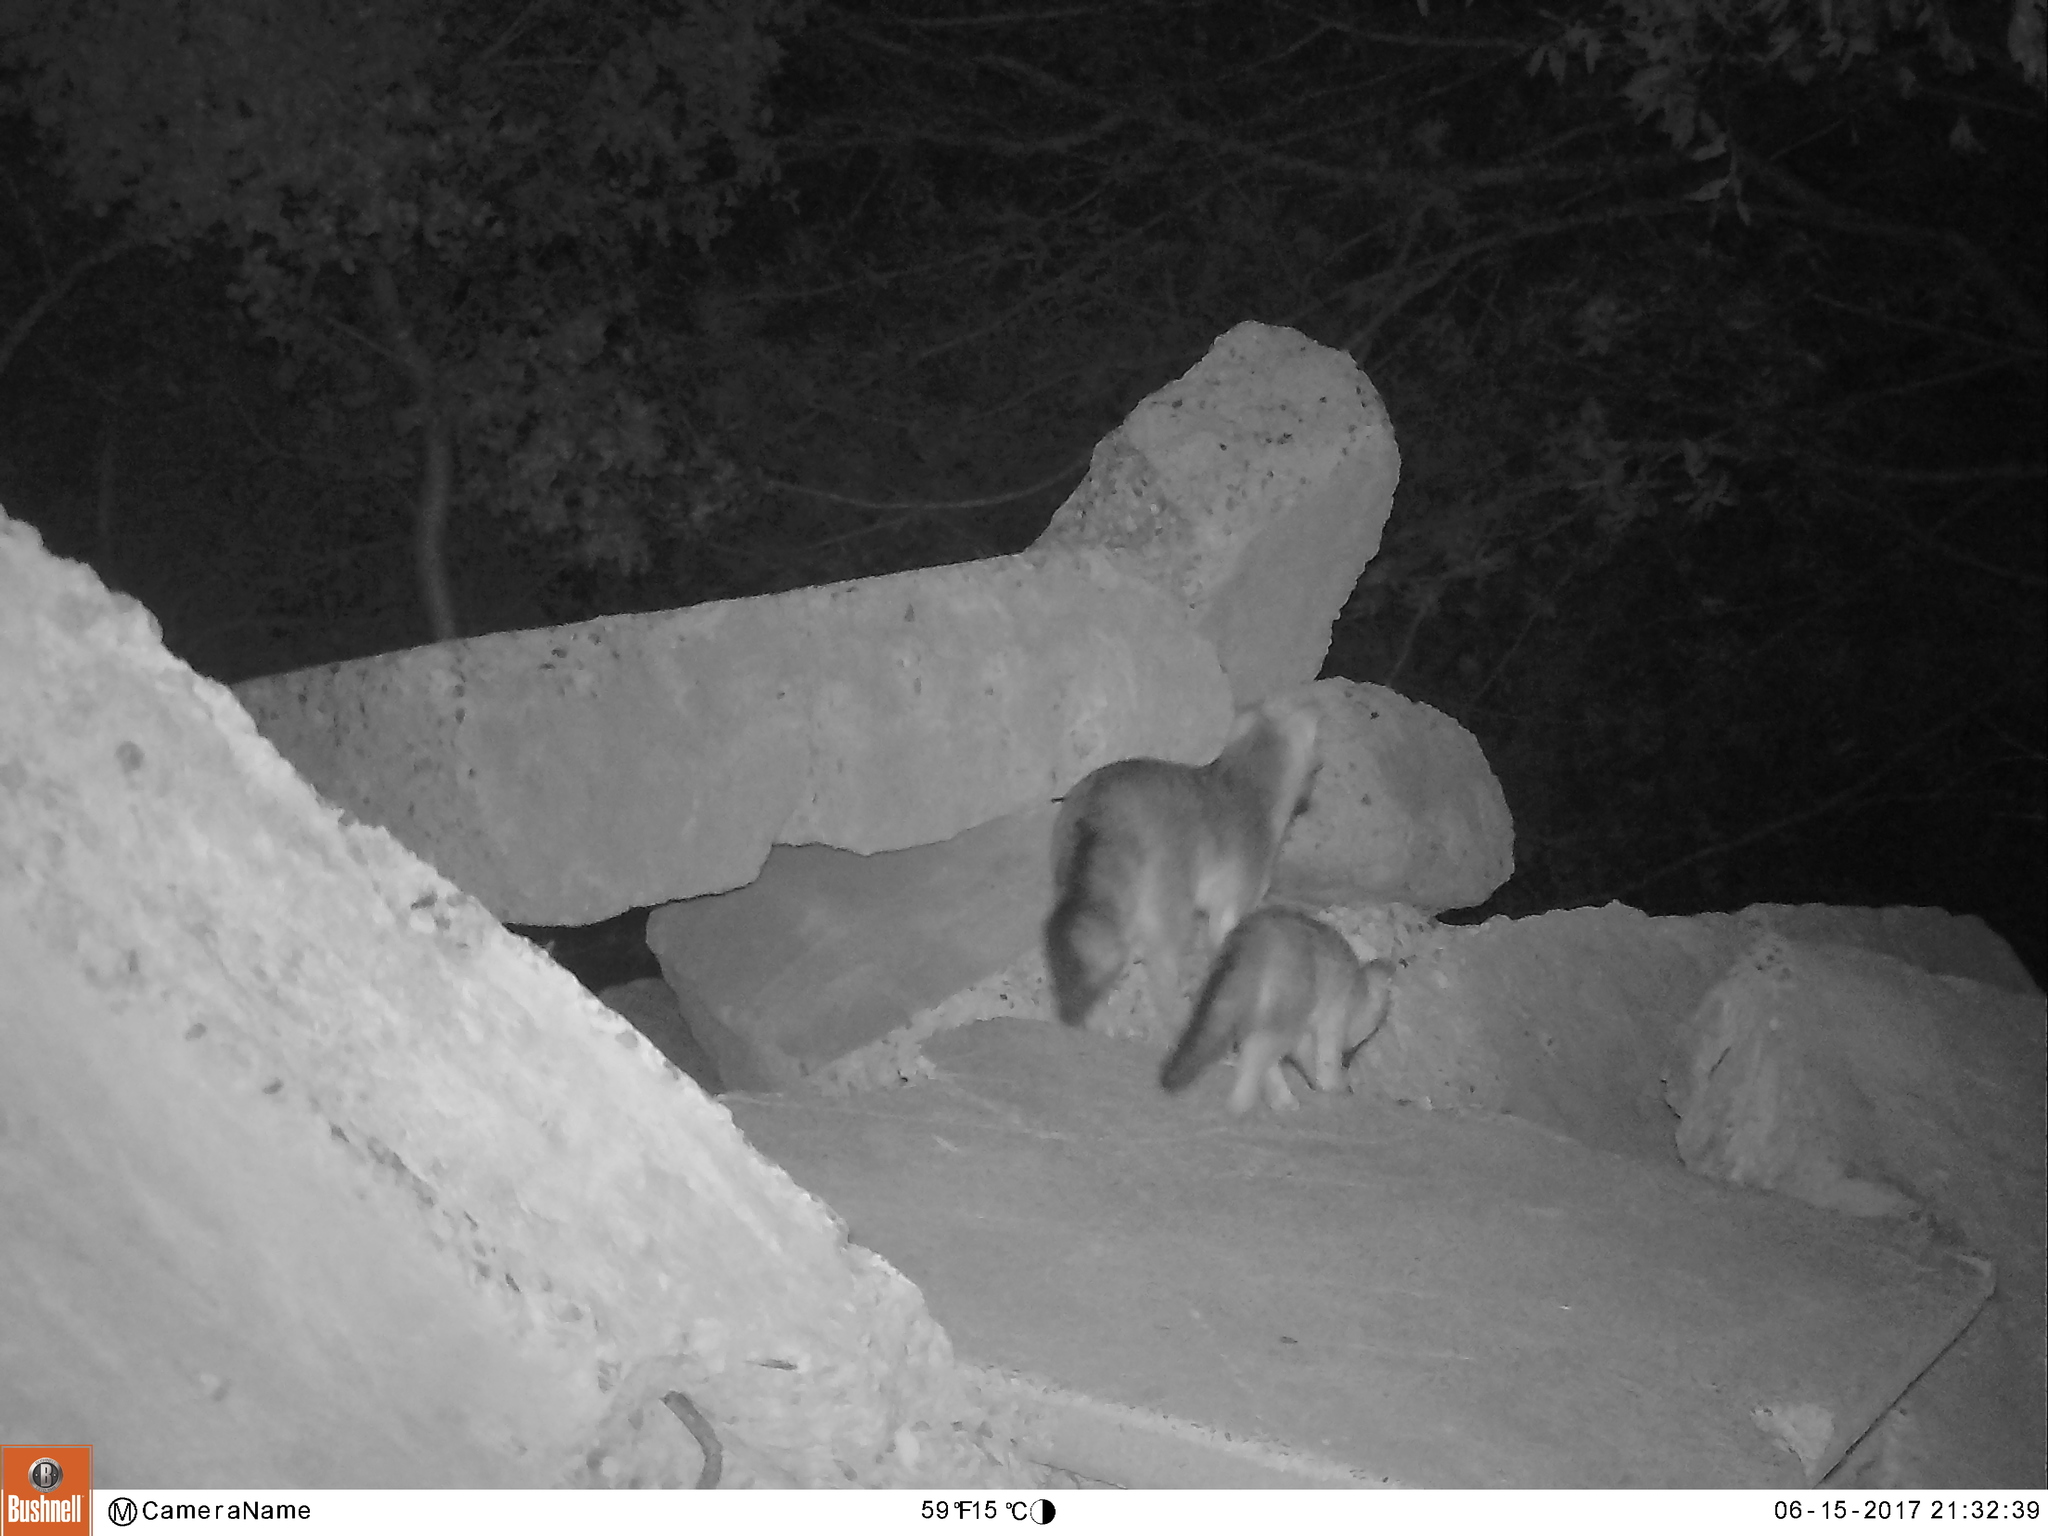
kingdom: Animalia
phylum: Chordata
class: Mammalia
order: Carnivora
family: Canidae
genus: Urocyon
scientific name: Urocyon cinereoargenteus
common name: Gray fox
